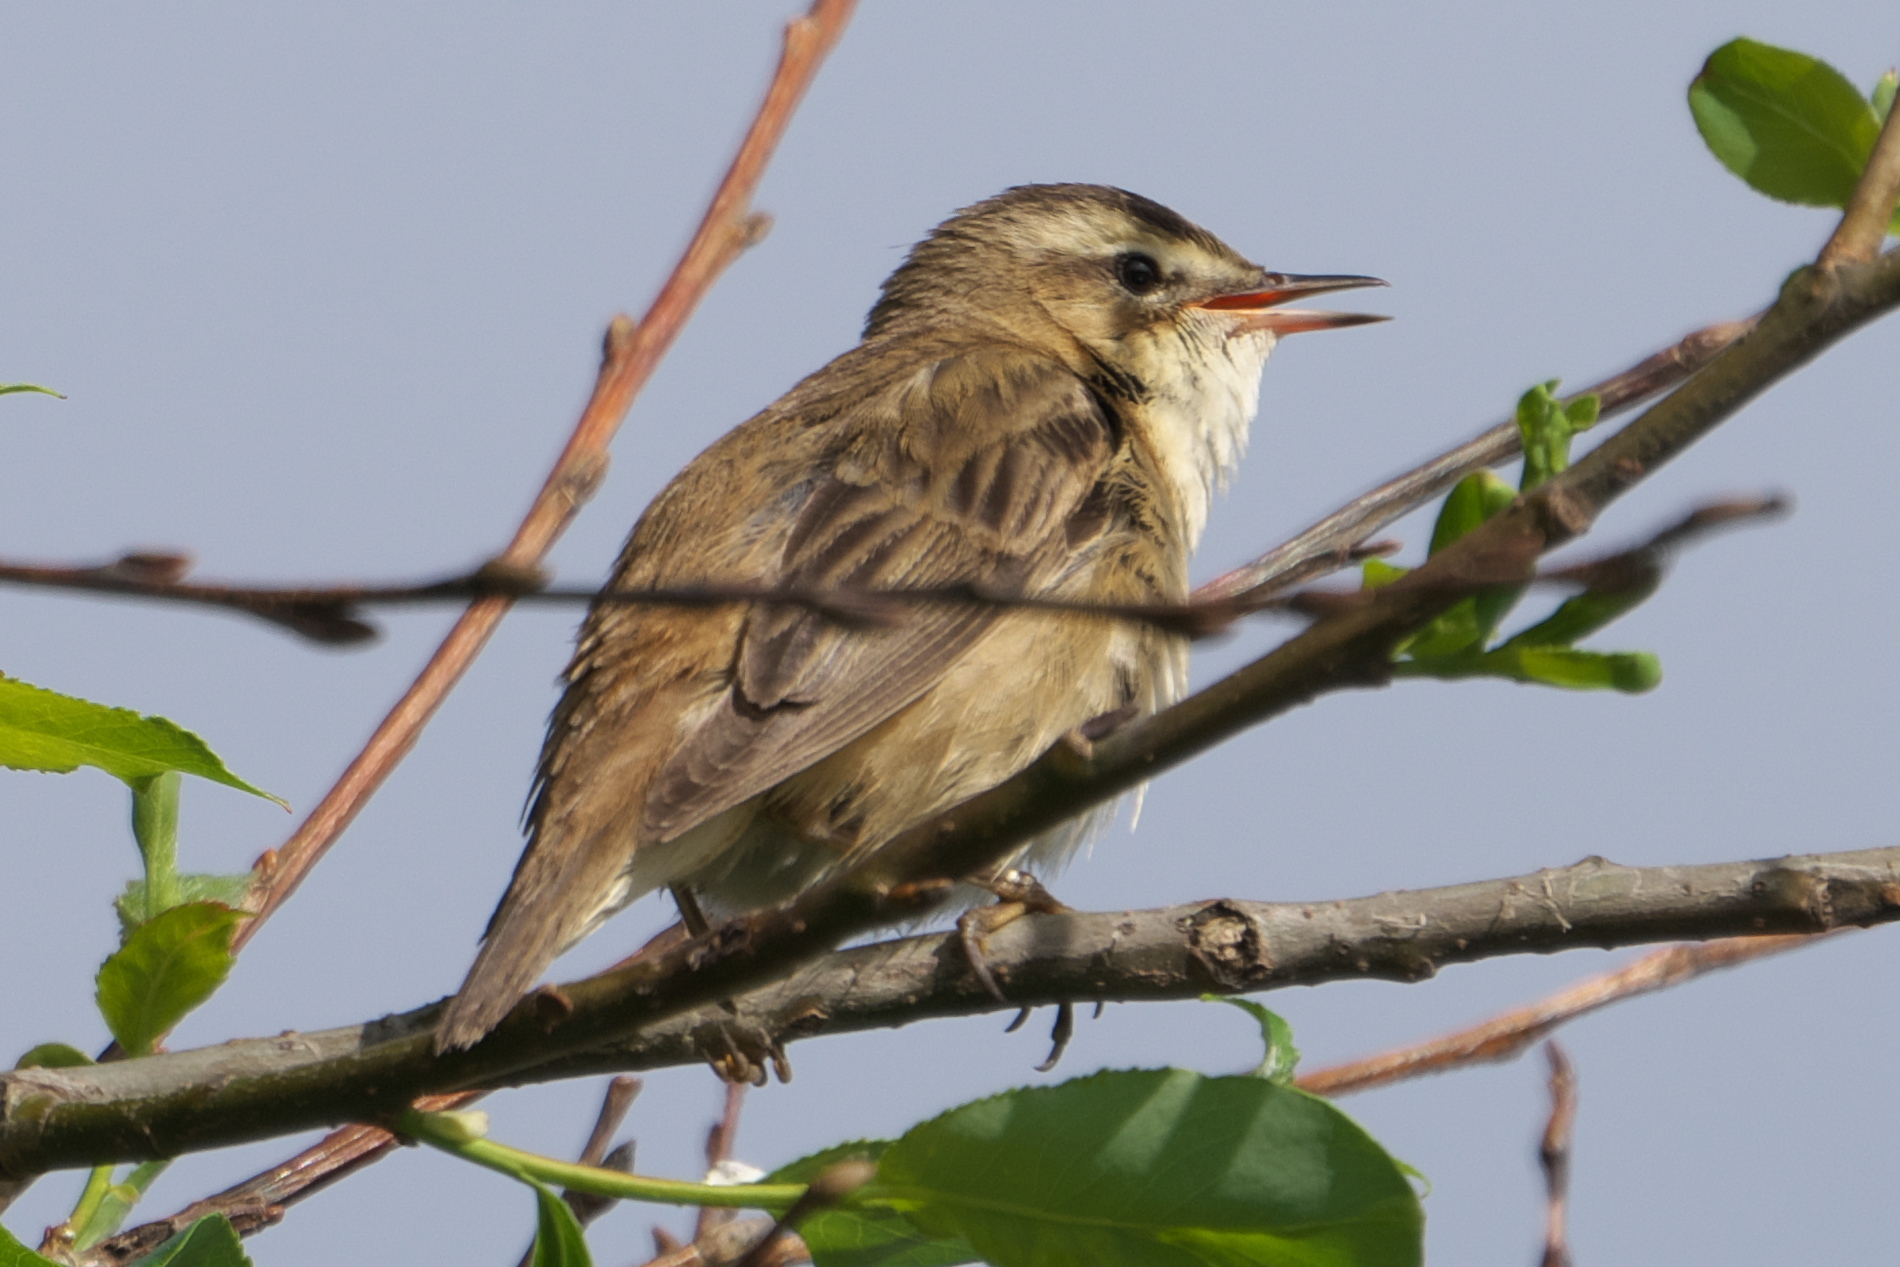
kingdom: Animalia
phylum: Chordata
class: Aves
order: Passeriformes
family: Acrocephalidae
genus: Acrocephalus
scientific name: Acrocephalus schoenobaenus
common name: Sedge warbler
